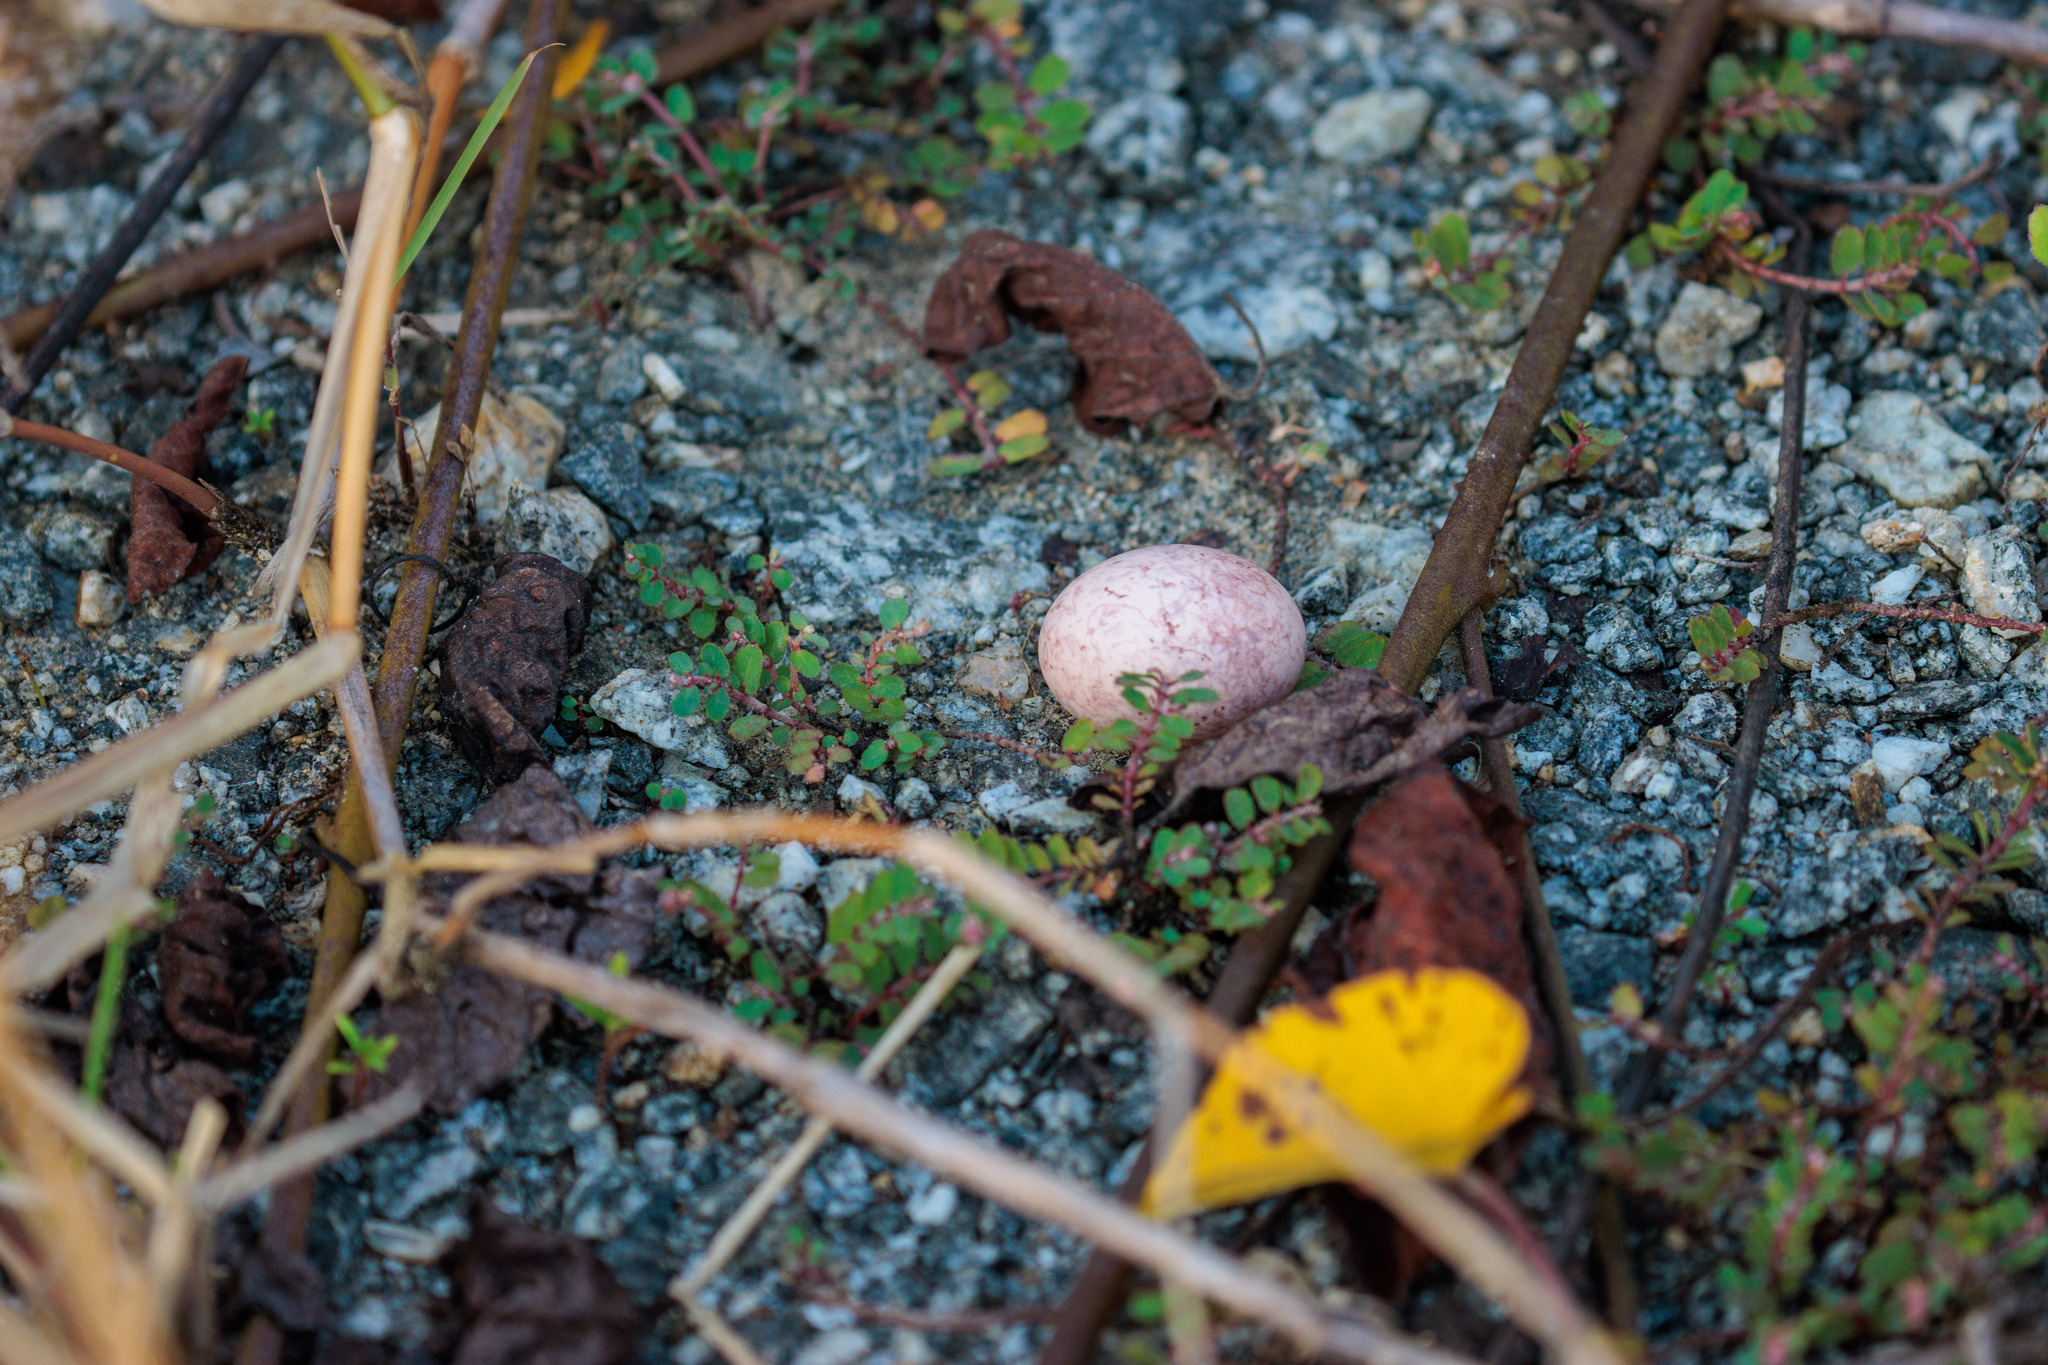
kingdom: Animalia
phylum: Chordata
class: Aves
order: Caprimulgiformes
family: Caprimulgidae
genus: Hydropsalis
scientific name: Hydropsalis torquata
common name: Scissor-tailed nightjar
